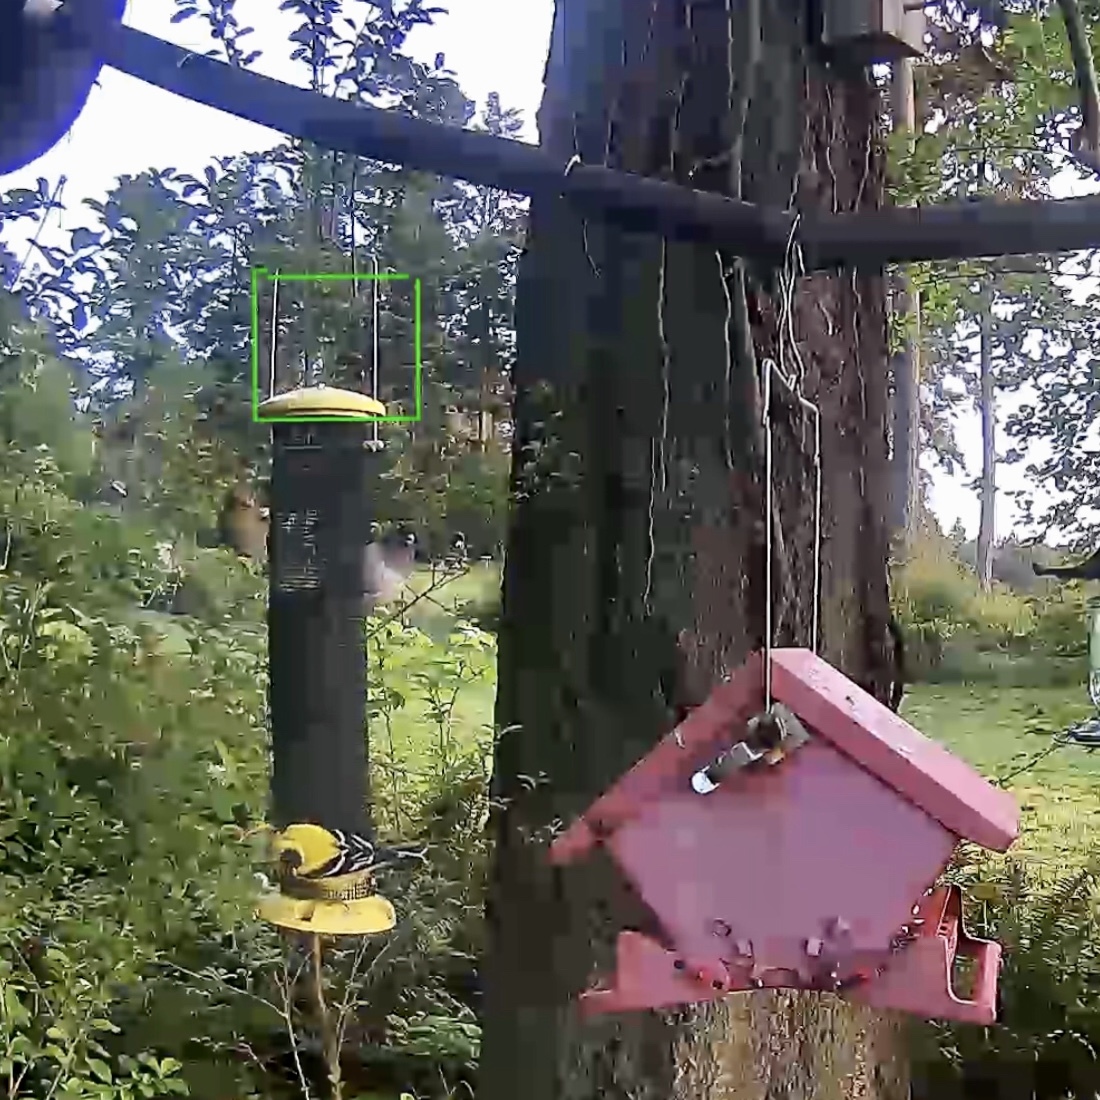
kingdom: Animalia
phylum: Chordata
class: Aves
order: Passeriformes
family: Fringillidae
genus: Spinus
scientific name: Spinus tristis
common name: American goldfinch
